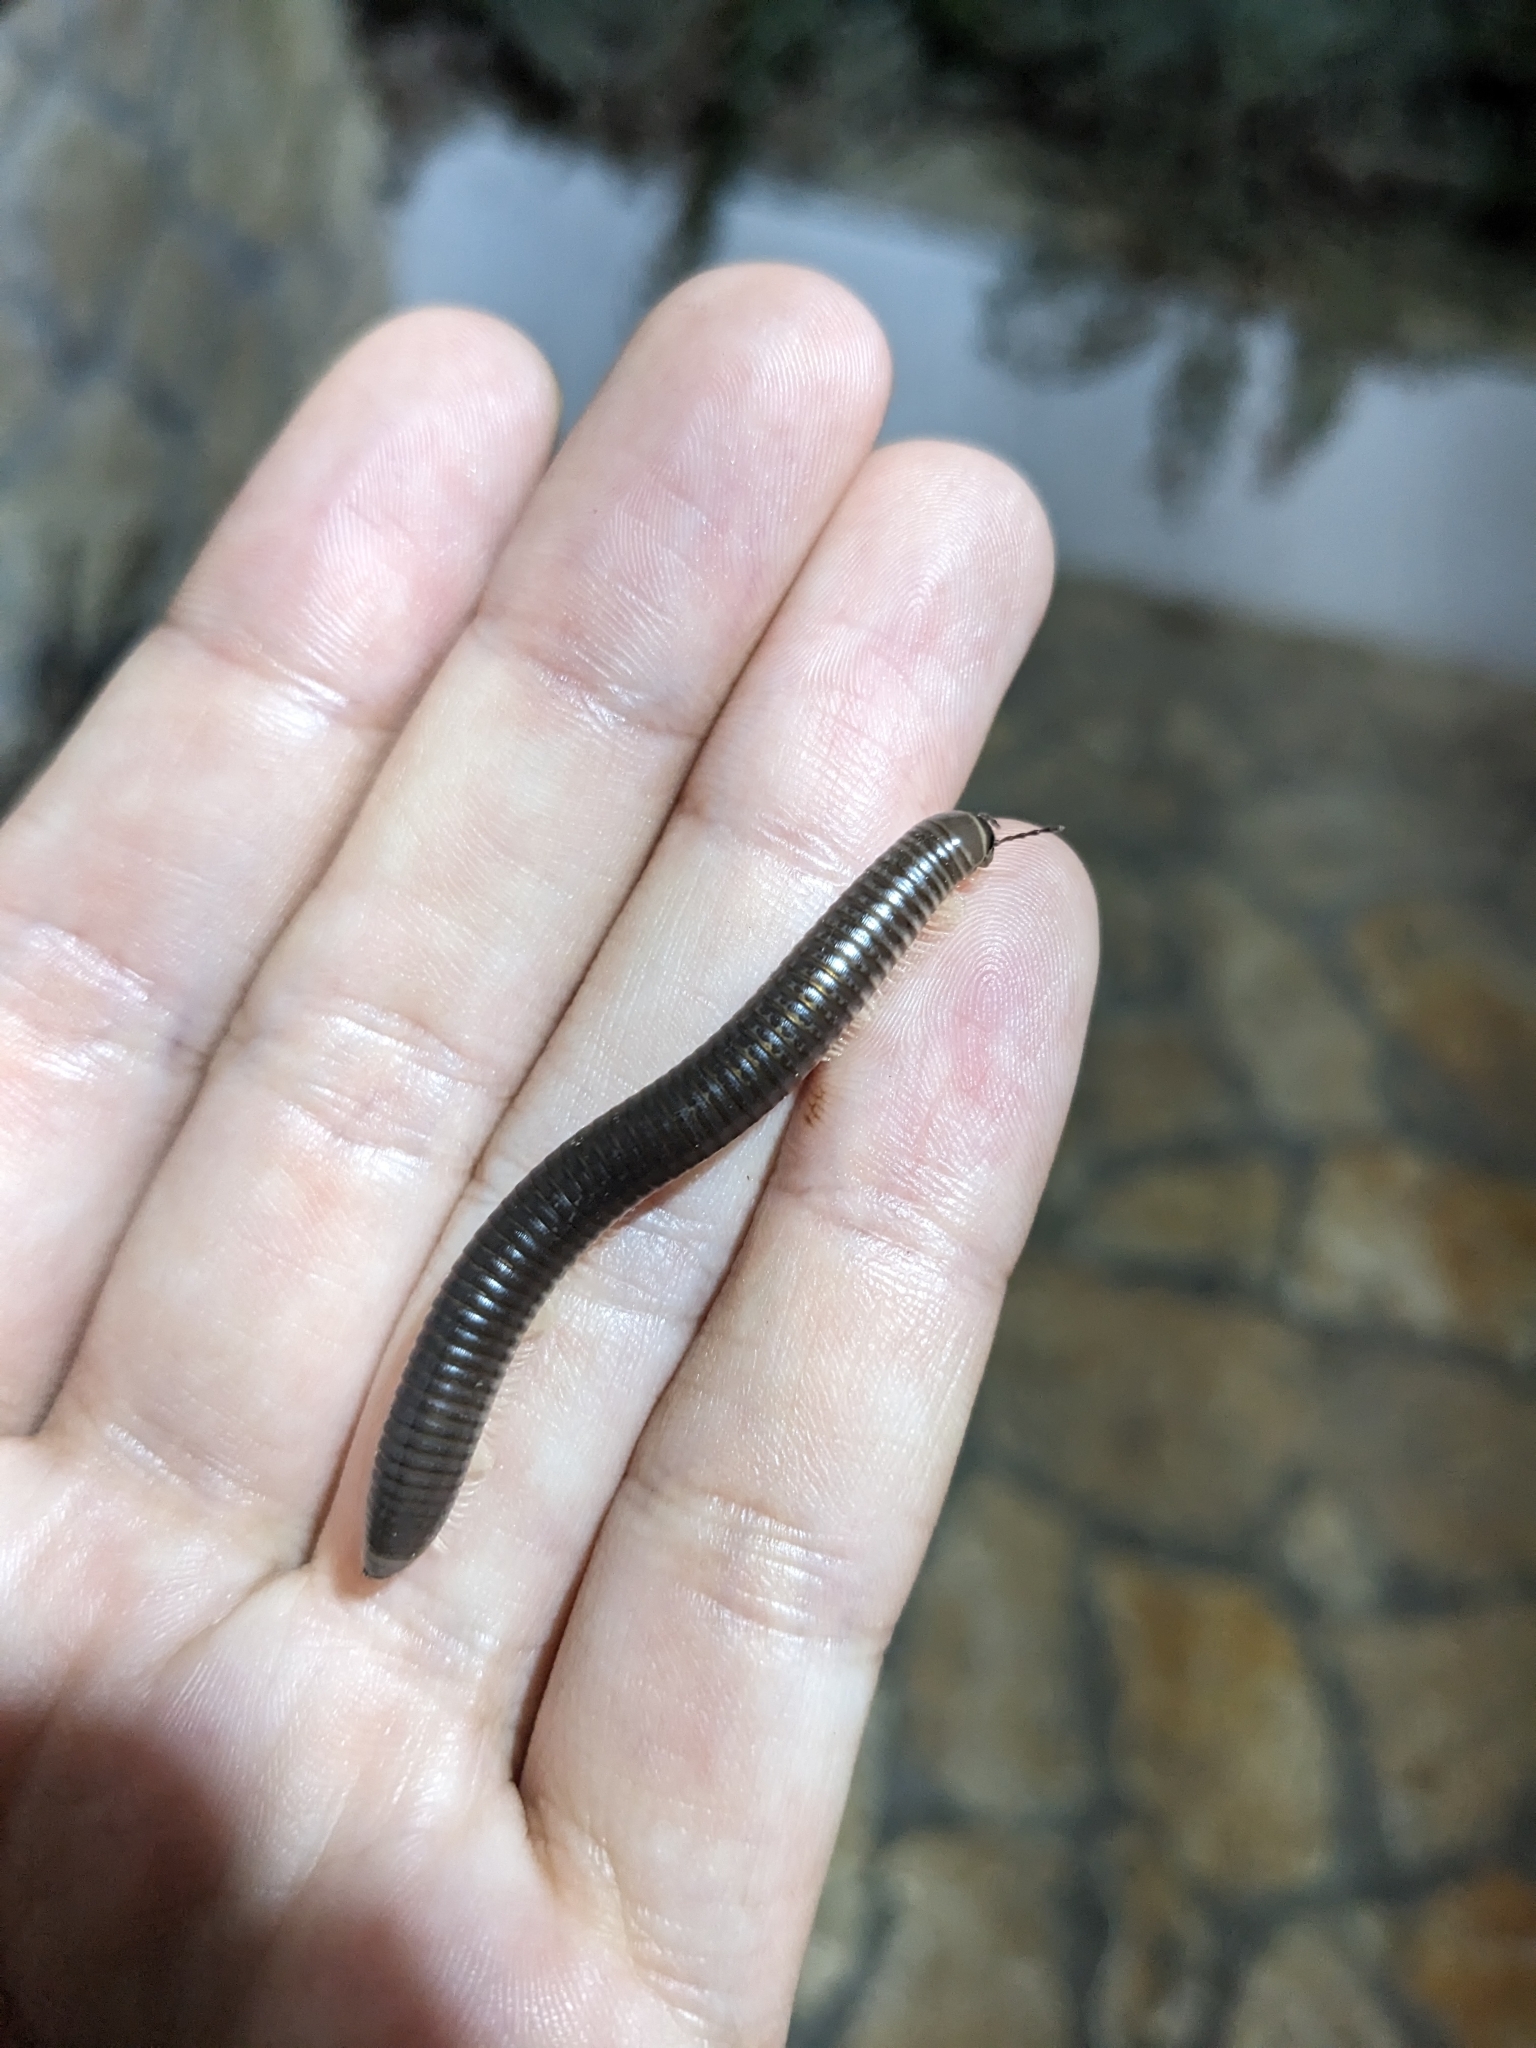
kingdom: Animalia
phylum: Arthropoda
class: Diplopoda
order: Julida
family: Julidae
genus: Pachyiulus
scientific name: Pachyiulus flavipes
